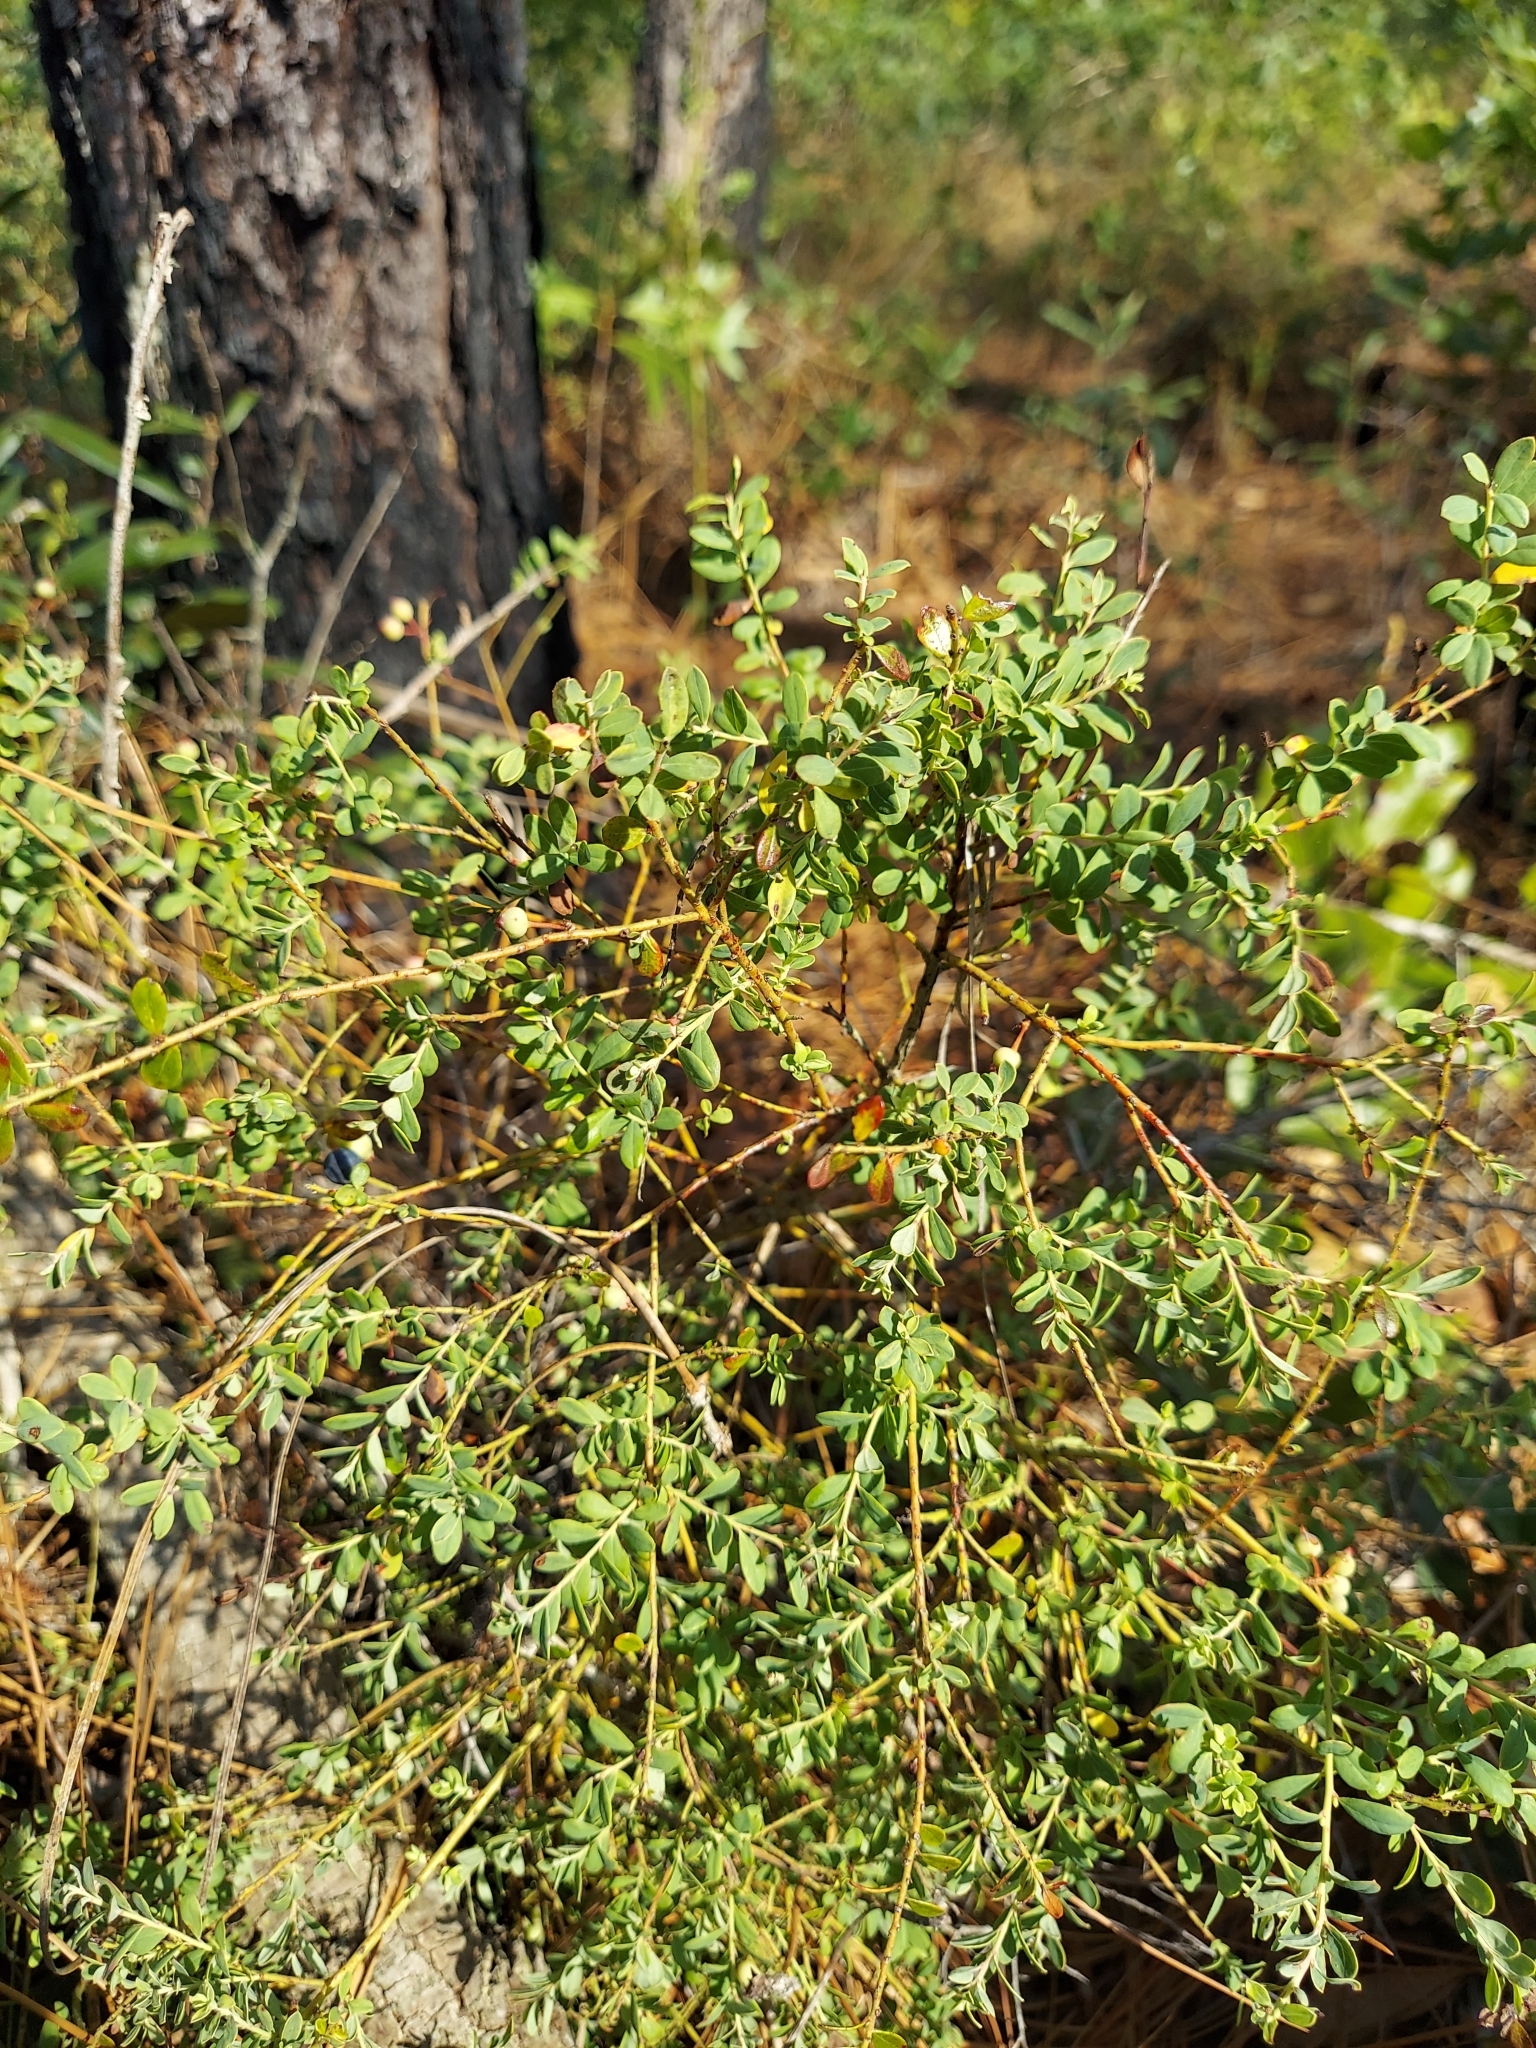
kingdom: Plantae
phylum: Tracheophyta
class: Magnoliopsida
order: Ericales
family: Ericaceae
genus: Vaccinium
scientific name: Vaccinium darrowii
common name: Darrow's blueberry
